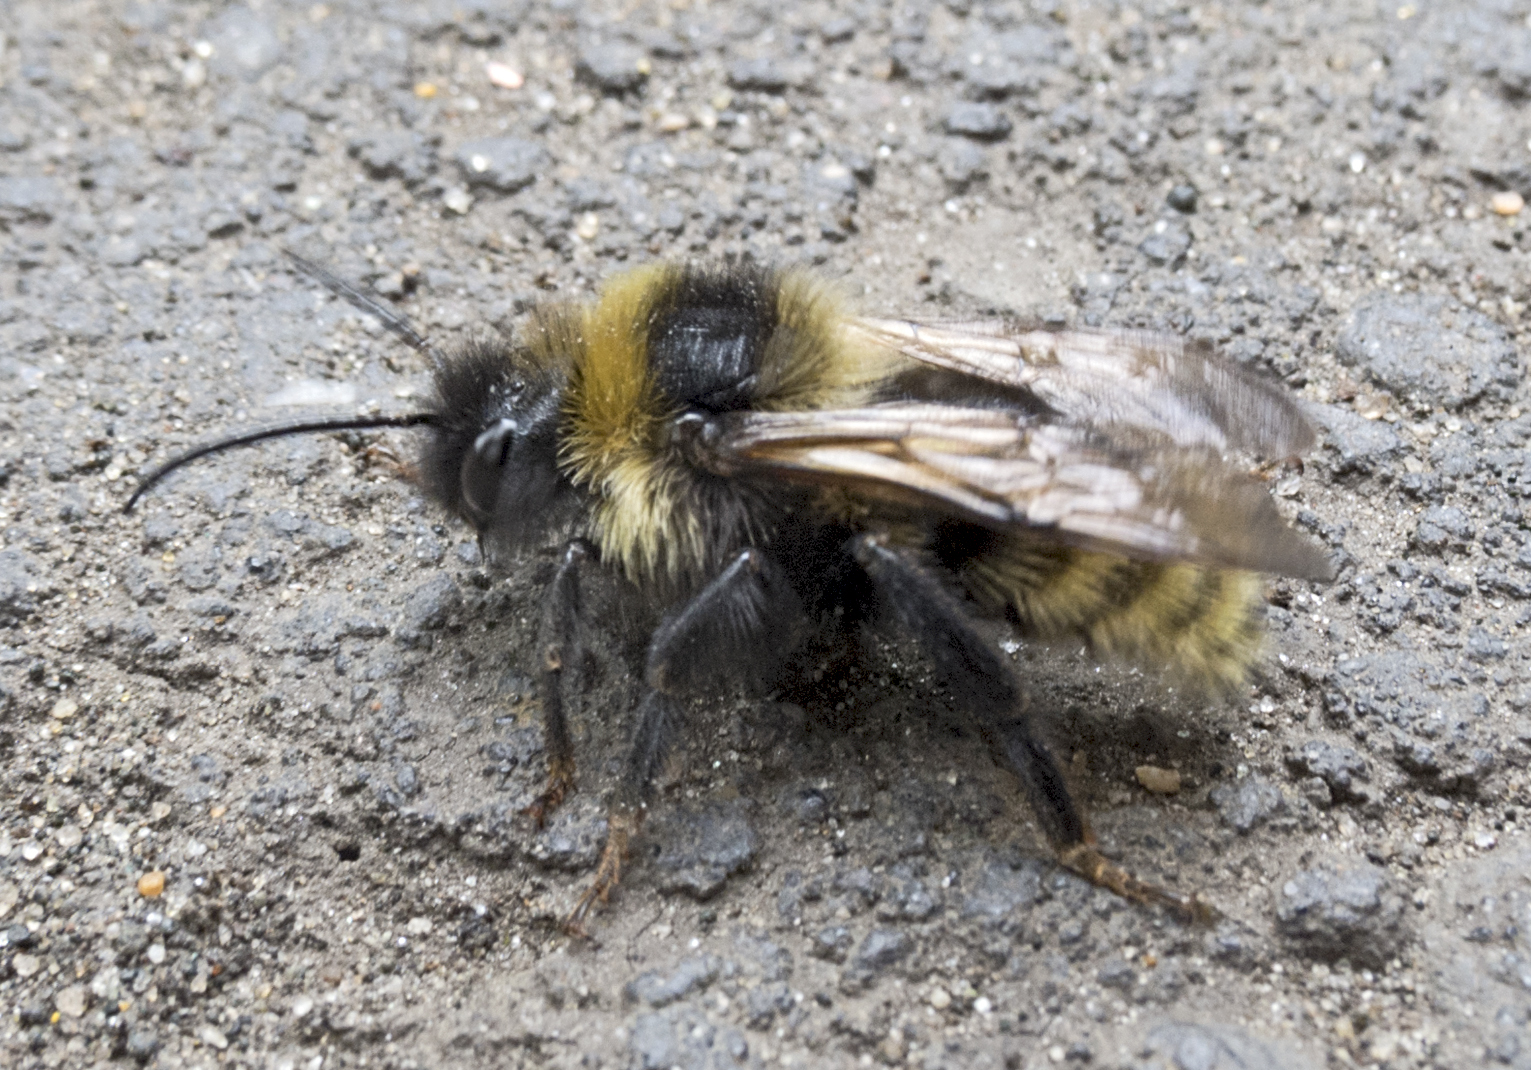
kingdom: Animalia
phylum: Arthropoda
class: Insecta
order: Hymenoptera
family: Apidae
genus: Bombus
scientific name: Bombus campestris
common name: Field cuckoo-bee
